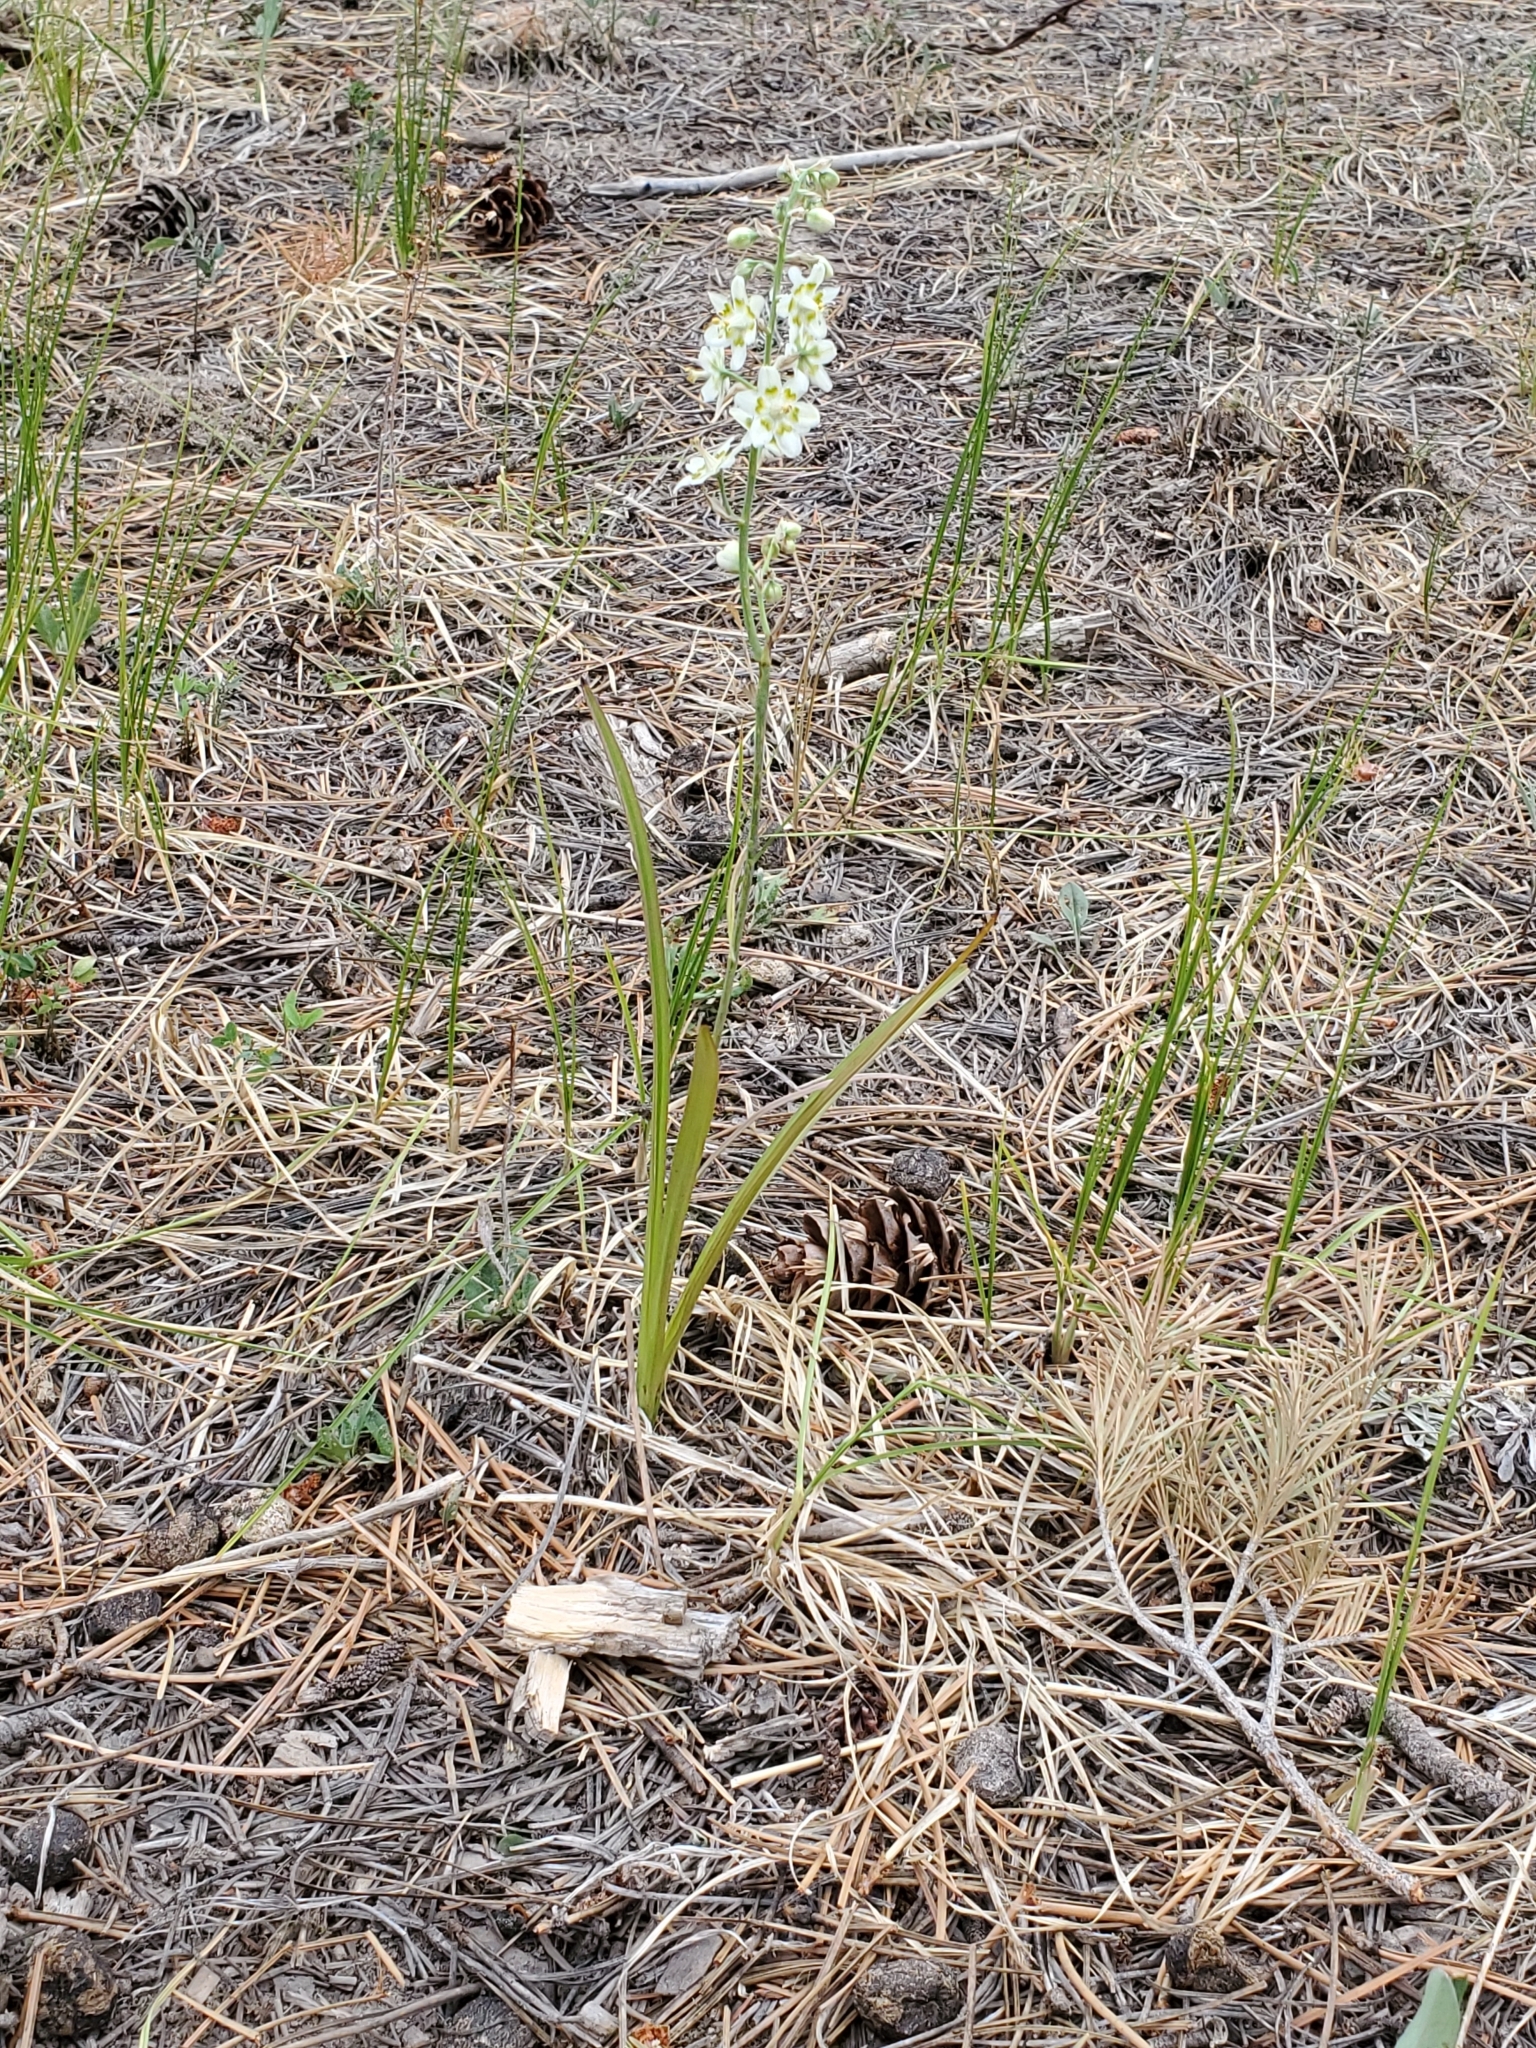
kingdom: Plantae
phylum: Tracheophyta
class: Liliopsida
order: Liliales
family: Melanthiaceae
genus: Anticlea
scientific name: Anticlea elegans
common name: Mountain death camas
